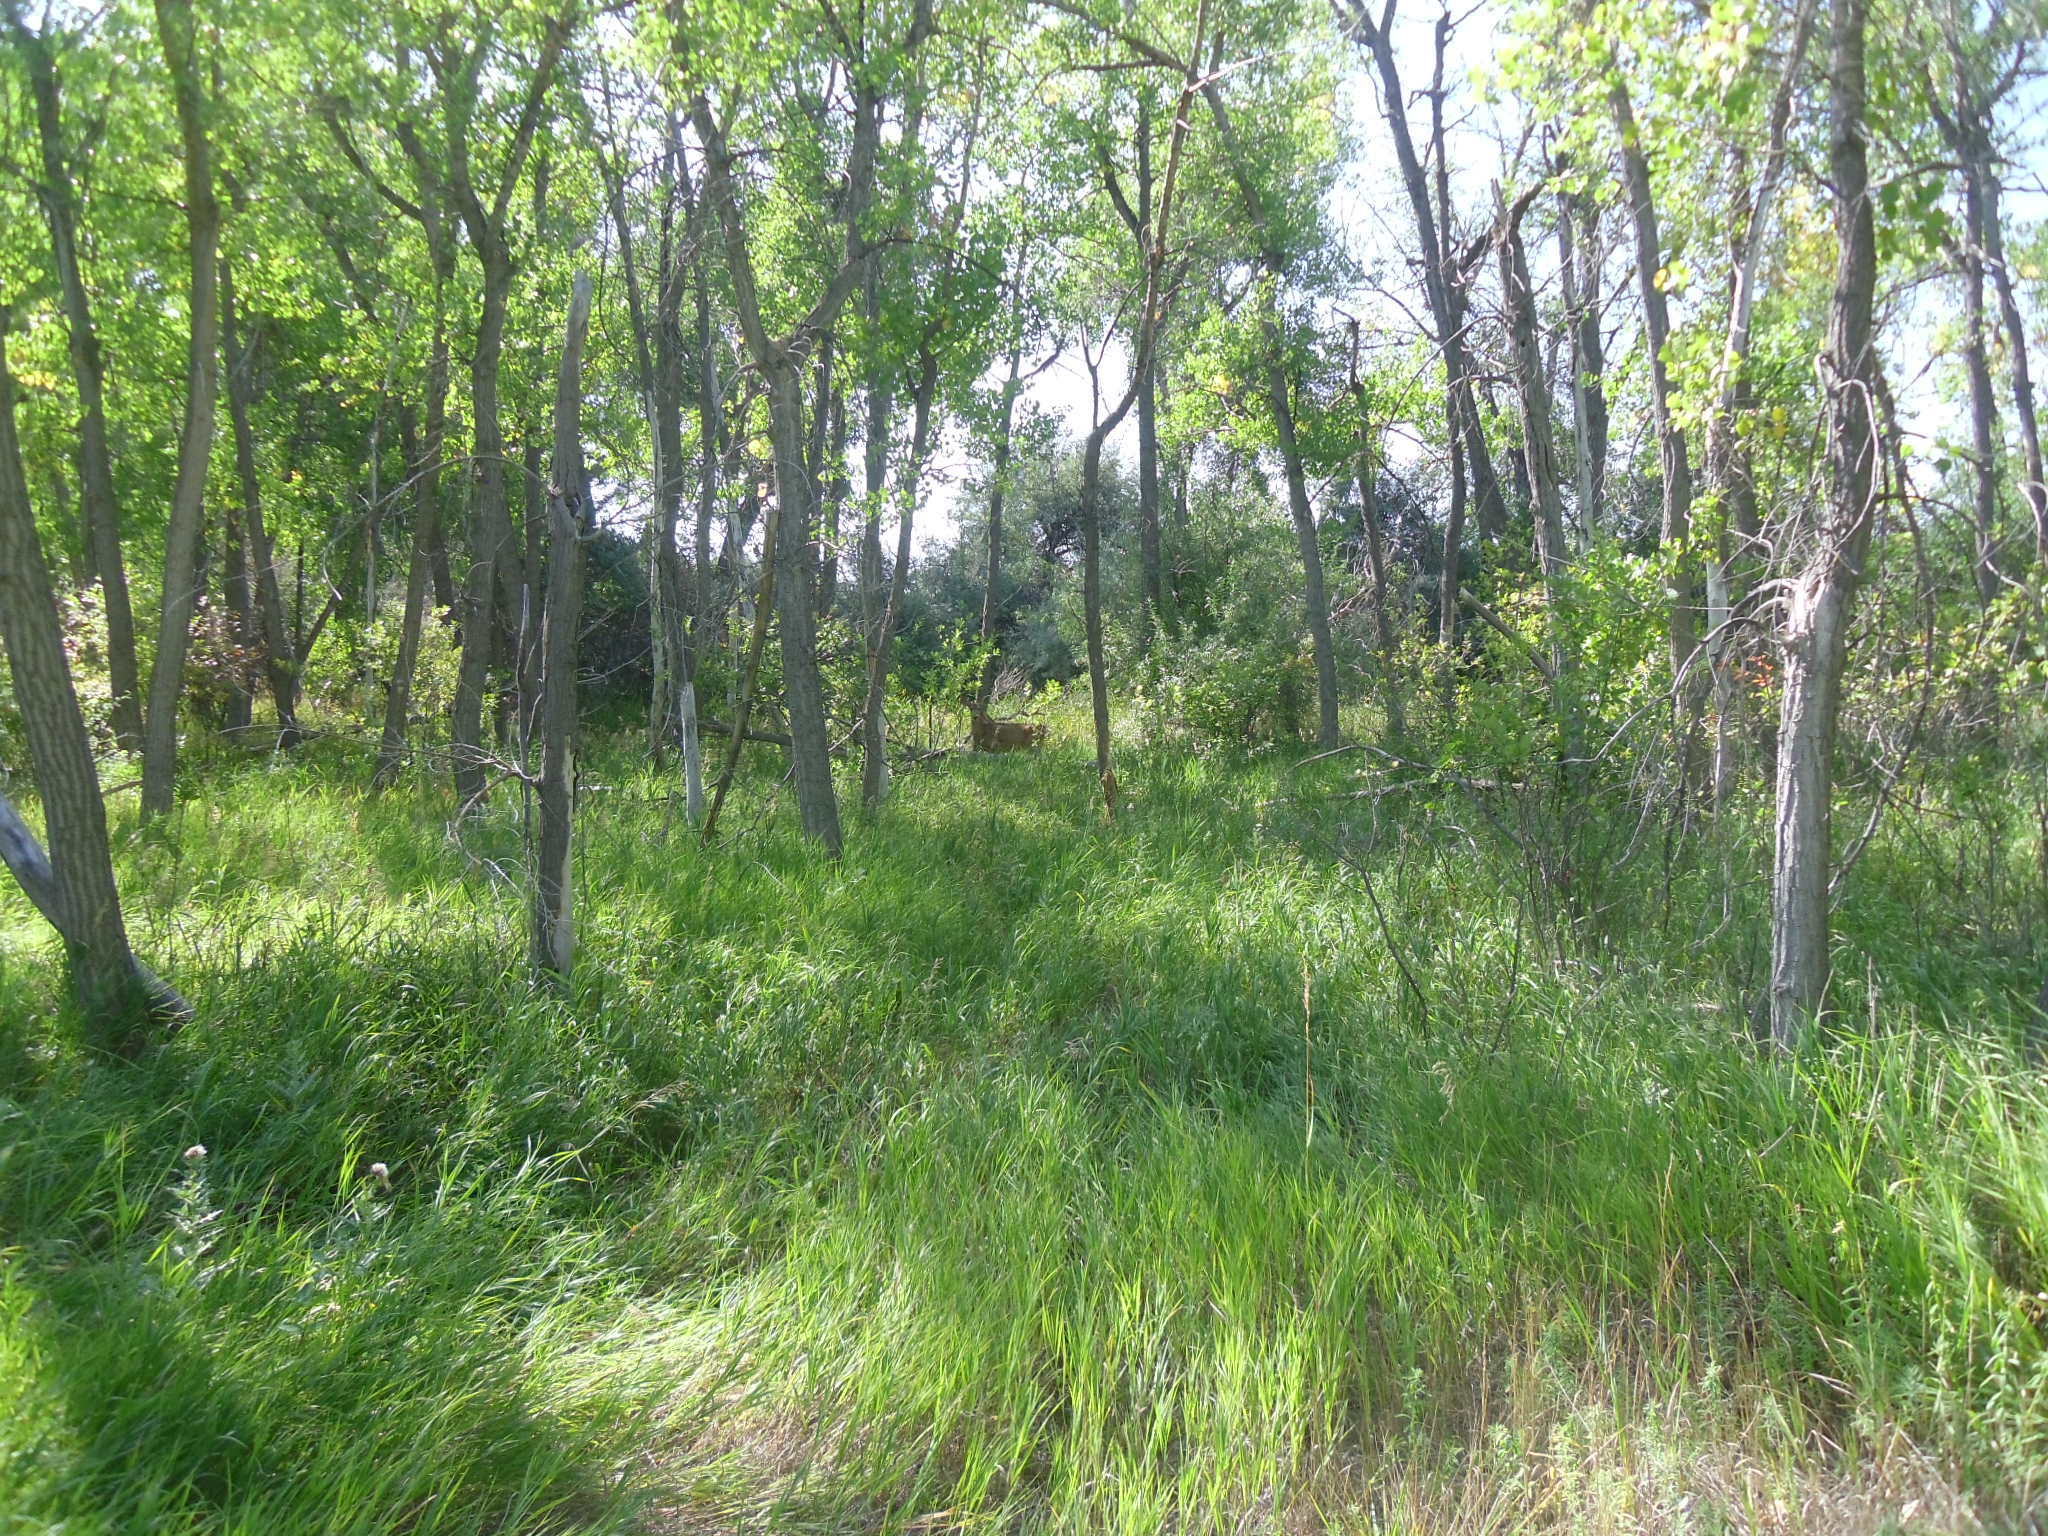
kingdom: Animalia
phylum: Chordata
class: Mammalia
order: Artiodactyla
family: Cervidae
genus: Odocoileus
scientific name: Odocoileus hemionus
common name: Mule deer
